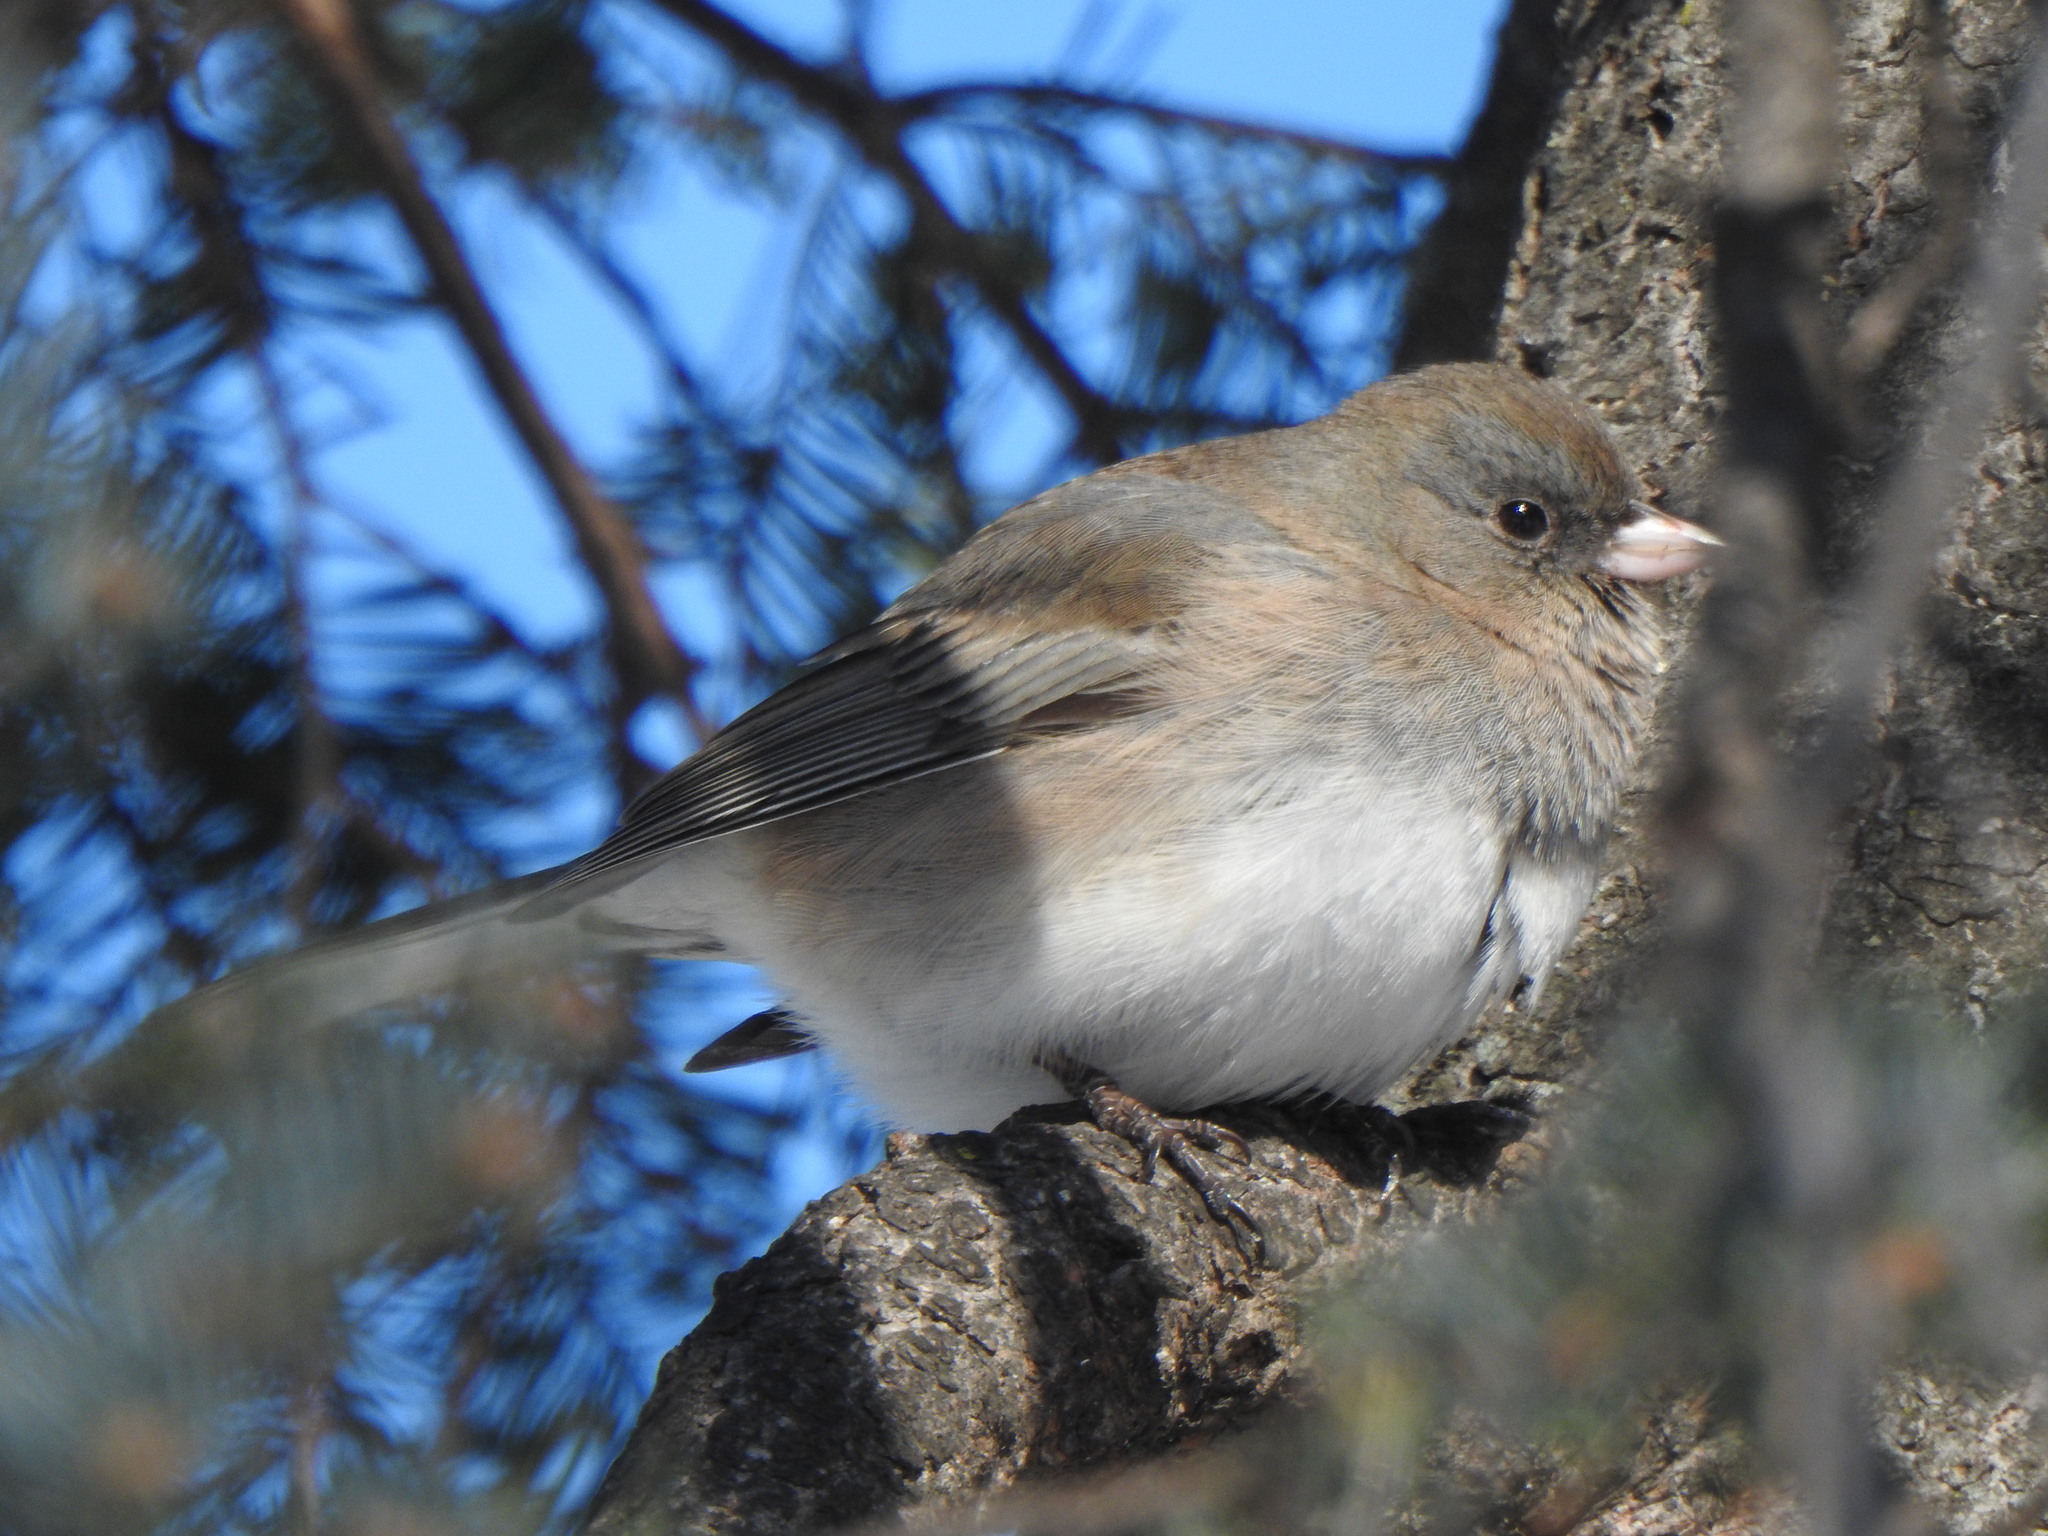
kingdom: Animalia
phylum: Chordata
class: Aves
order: Passeriformes
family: Passerellidae
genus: Junco
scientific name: Junco hyemalis
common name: Dark-eyed junco
